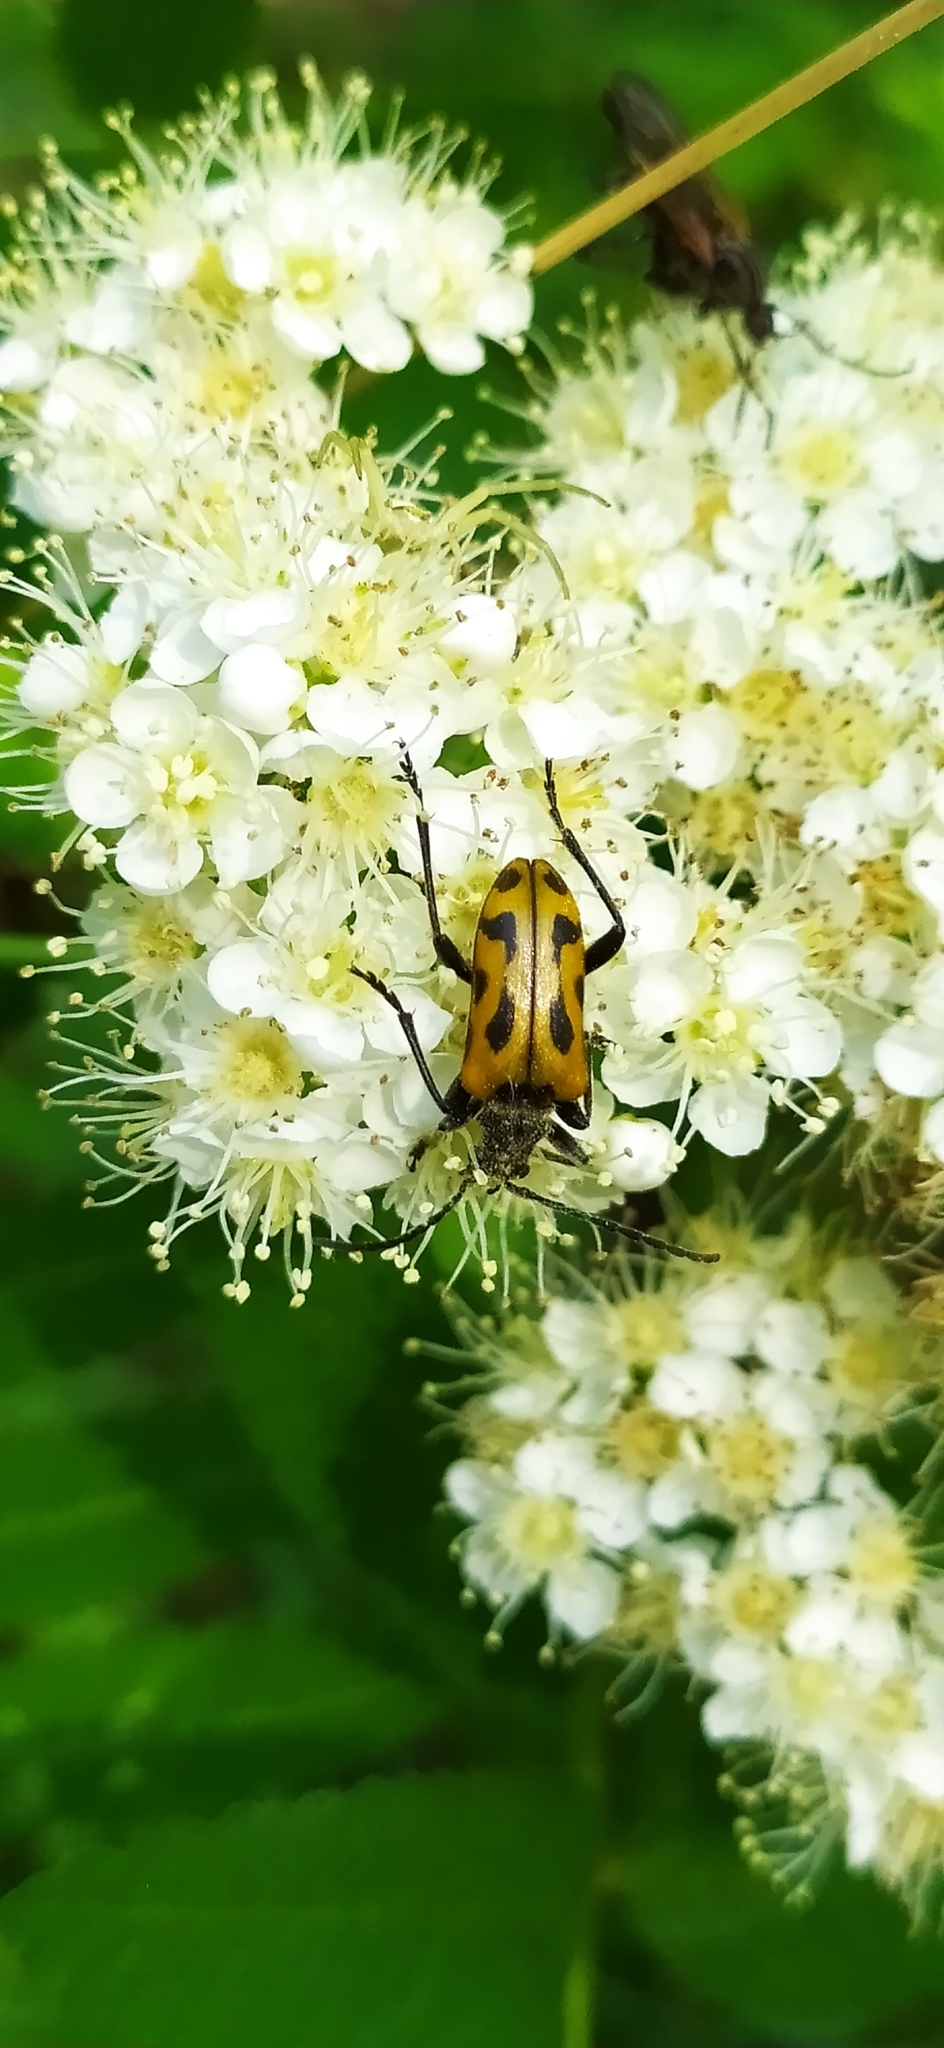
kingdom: Animalia
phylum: Arthropoda
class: Insecta
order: Coleoptera
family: Cerambycidae
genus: Brachyta
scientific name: Brachyta interrogationis
